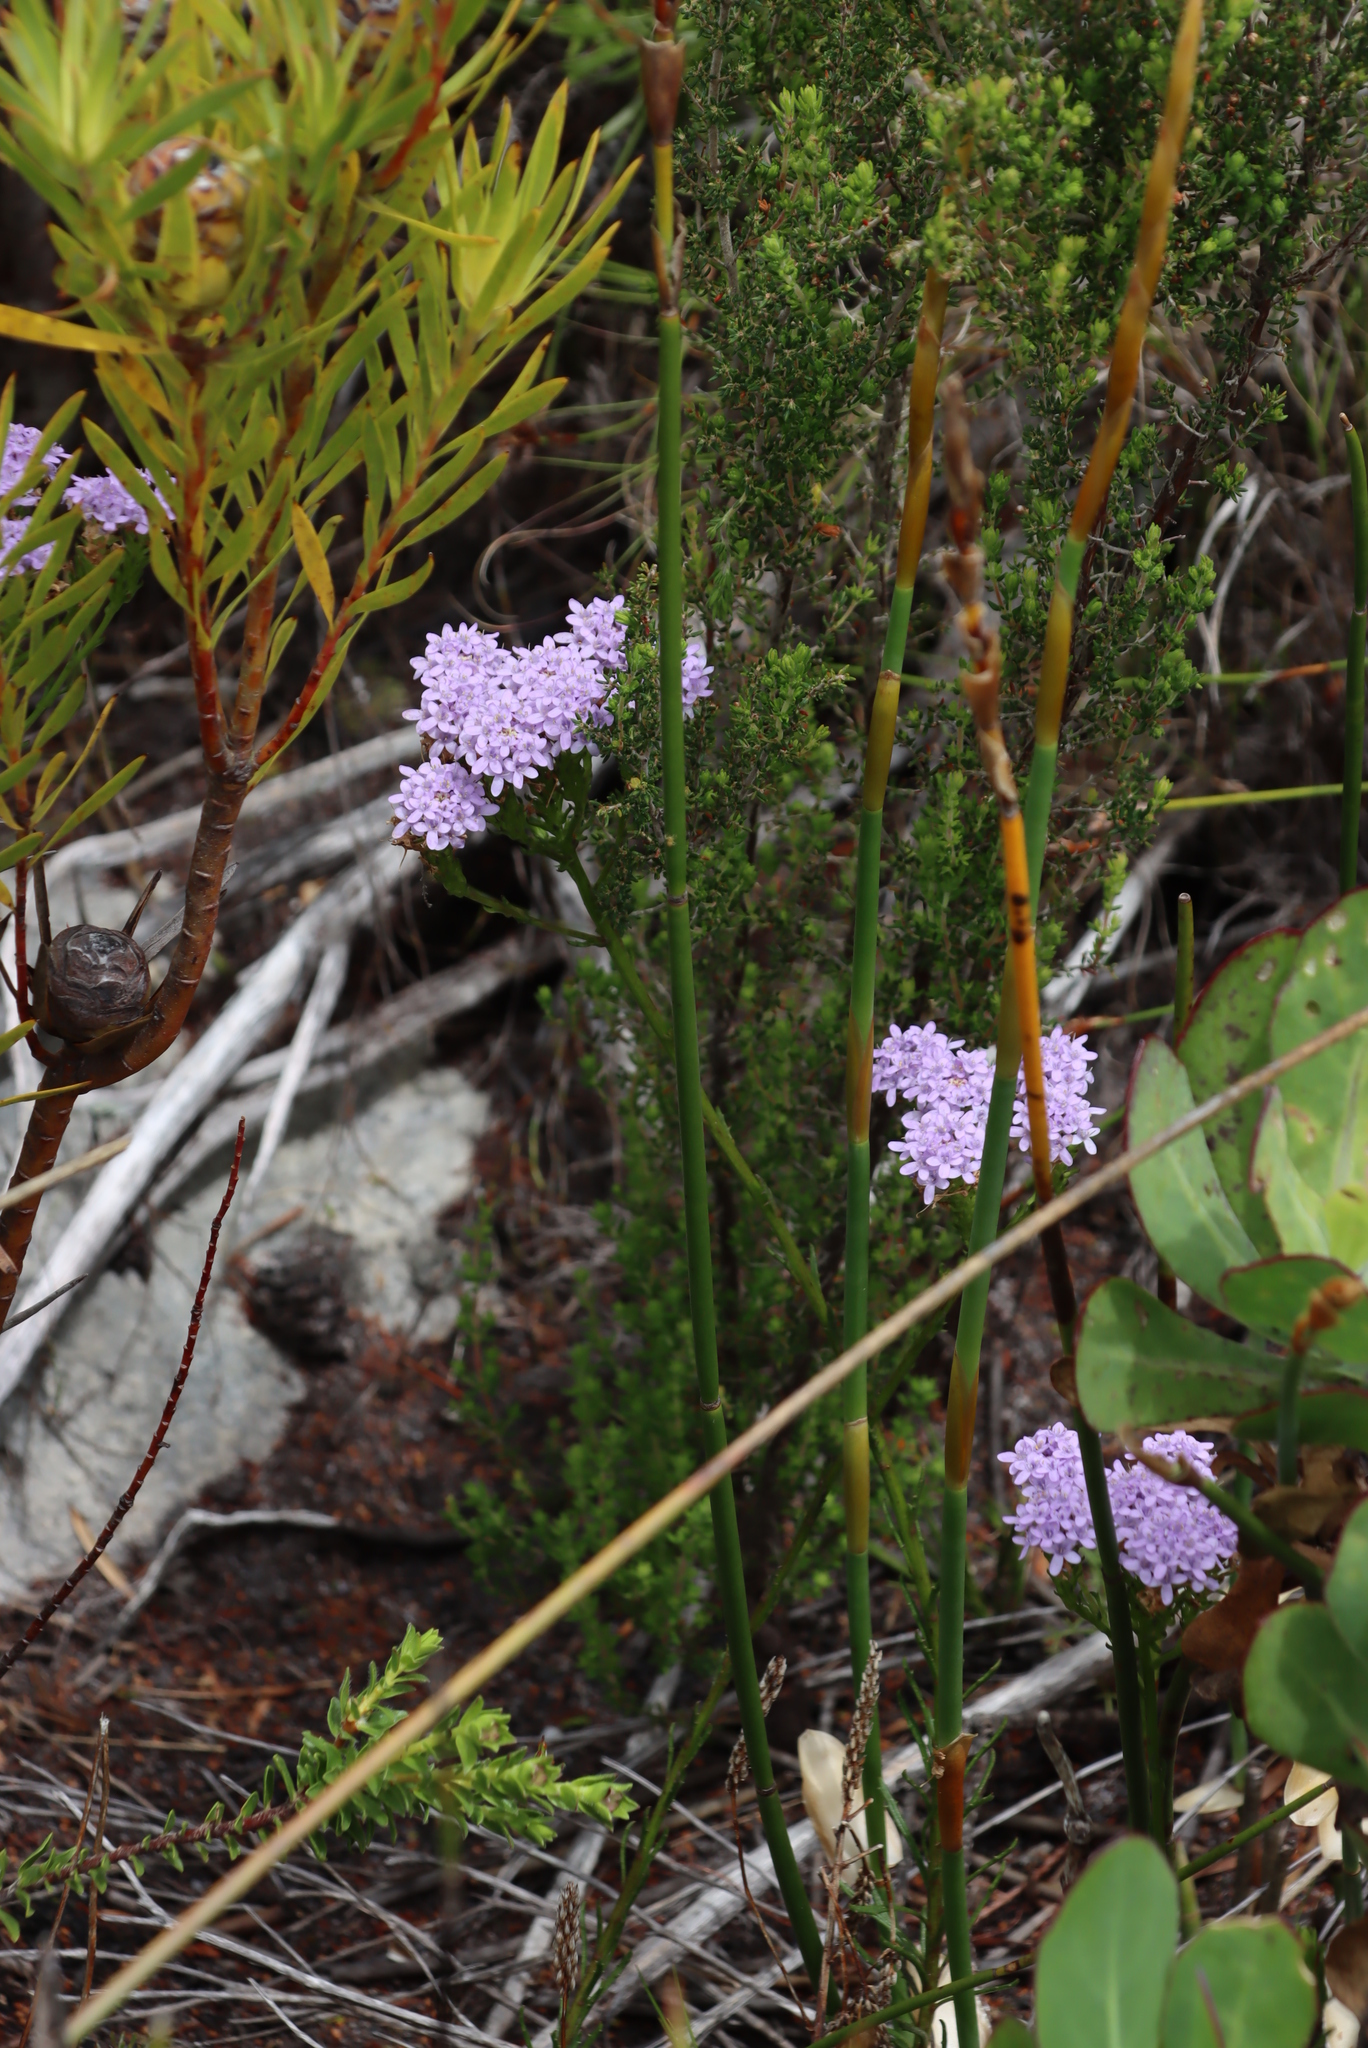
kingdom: Plantae
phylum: Tracheophyta
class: Magnoliopsida
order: Lamiales
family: Scrophulariaceae
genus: Pseudoselago
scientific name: Pseudoselago spuria
